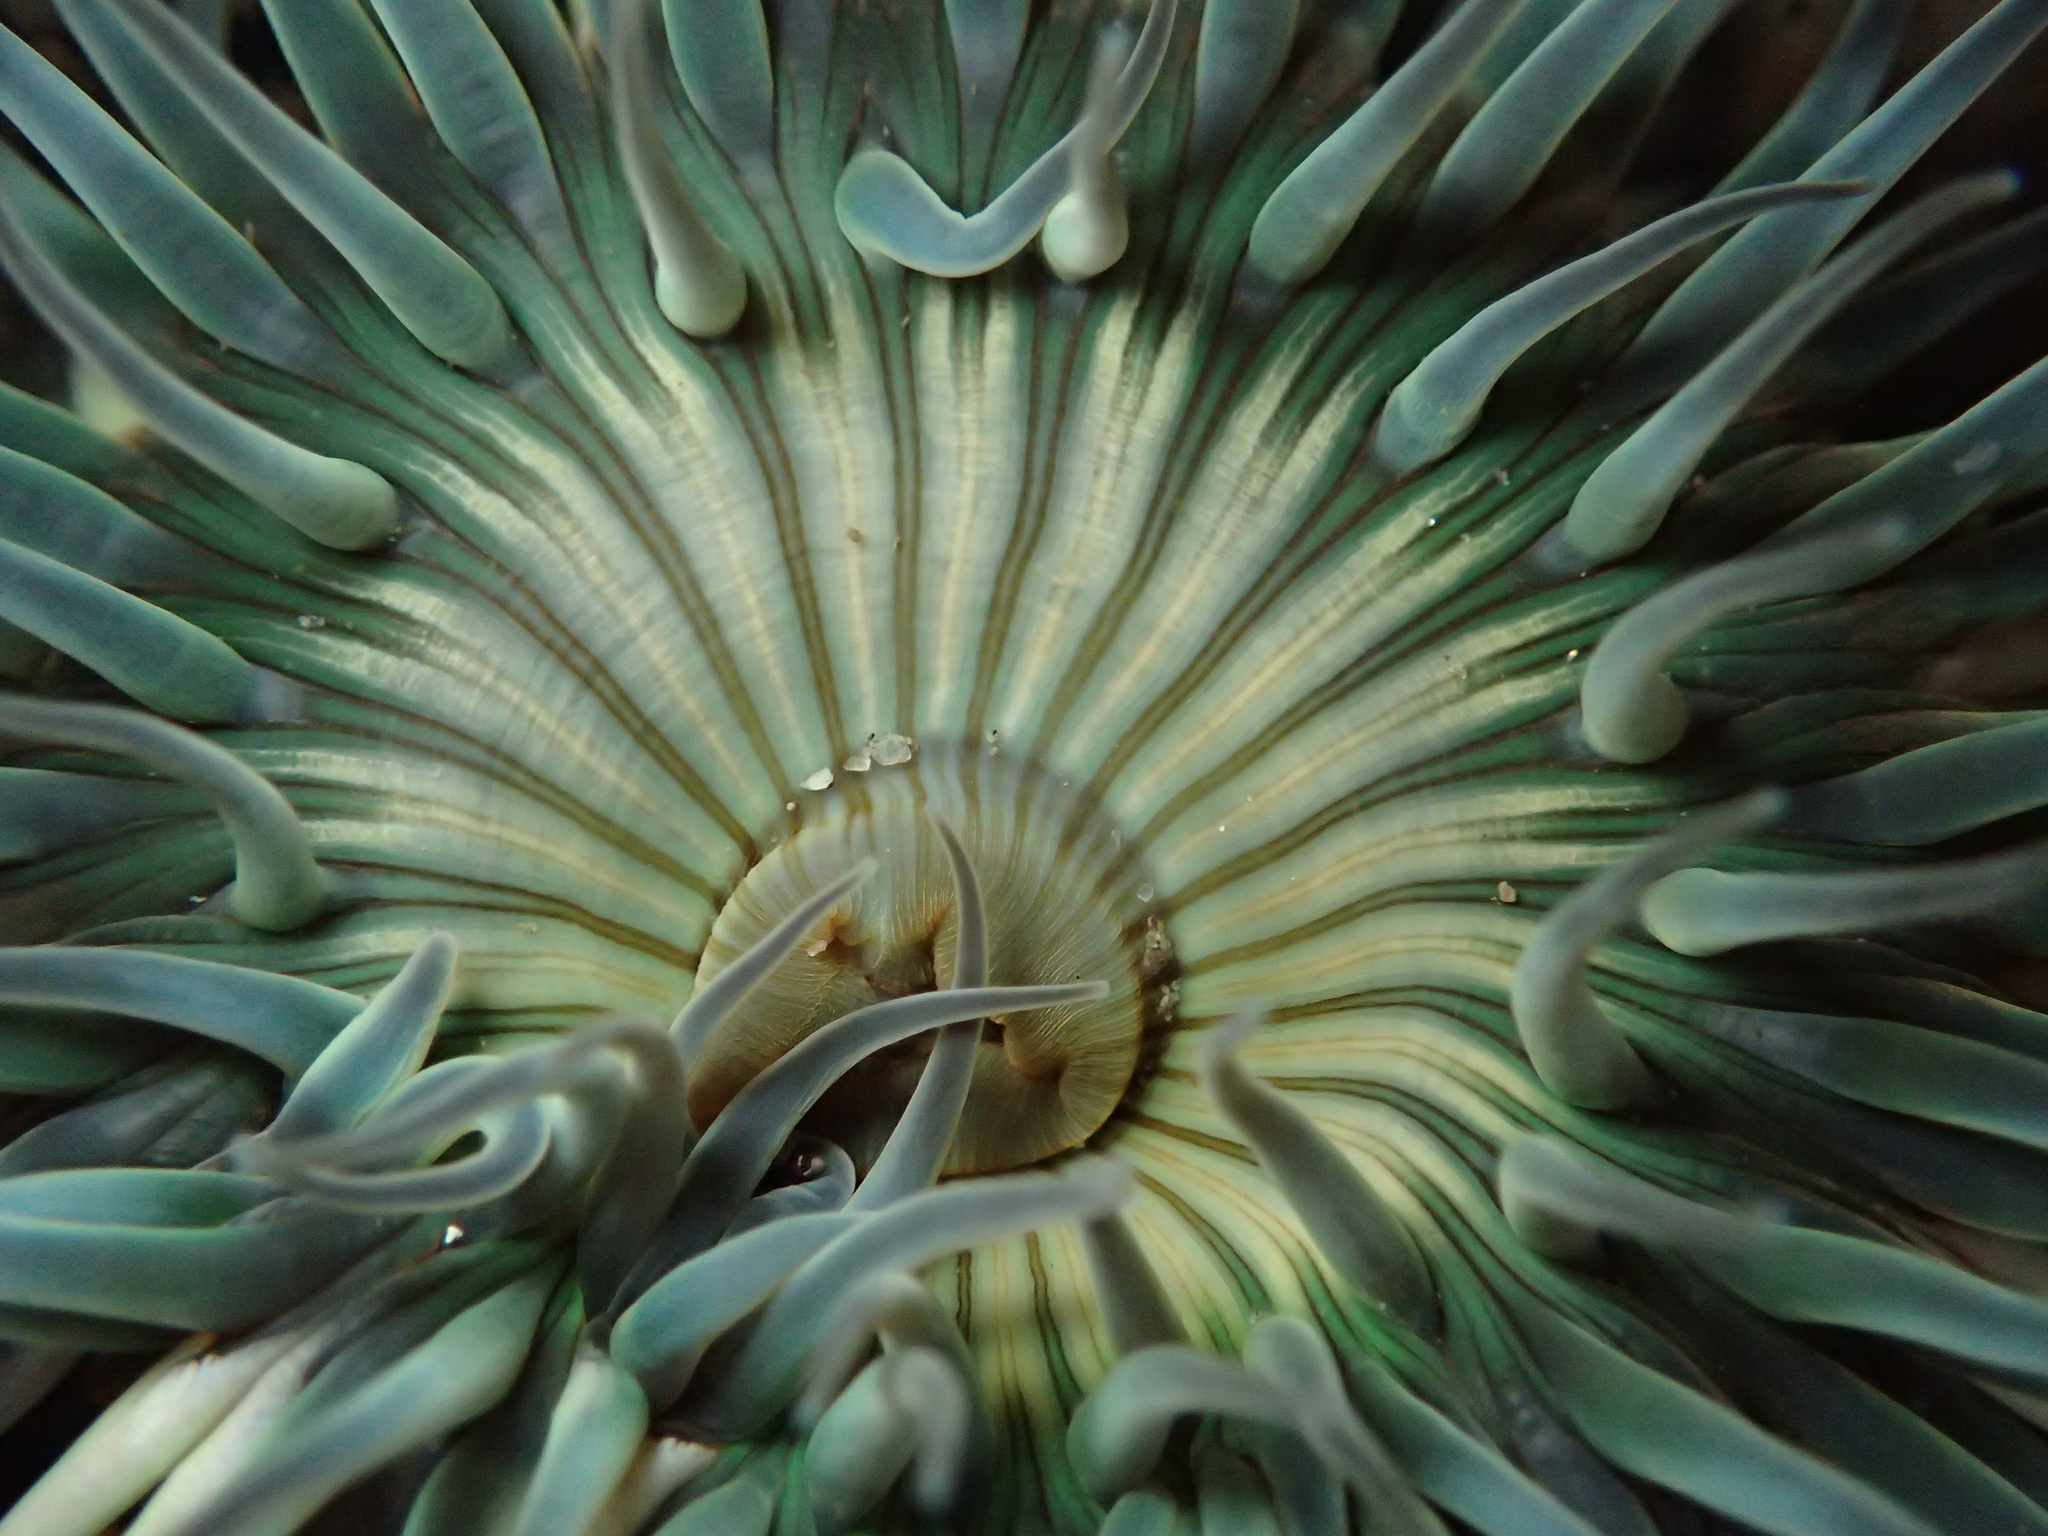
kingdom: Animalia
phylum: Cnidaria
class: Anthozoa
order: Actiniaria
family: Actiniidae
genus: Anthopleura
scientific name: Anthopleura sola
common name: Sun anemone
